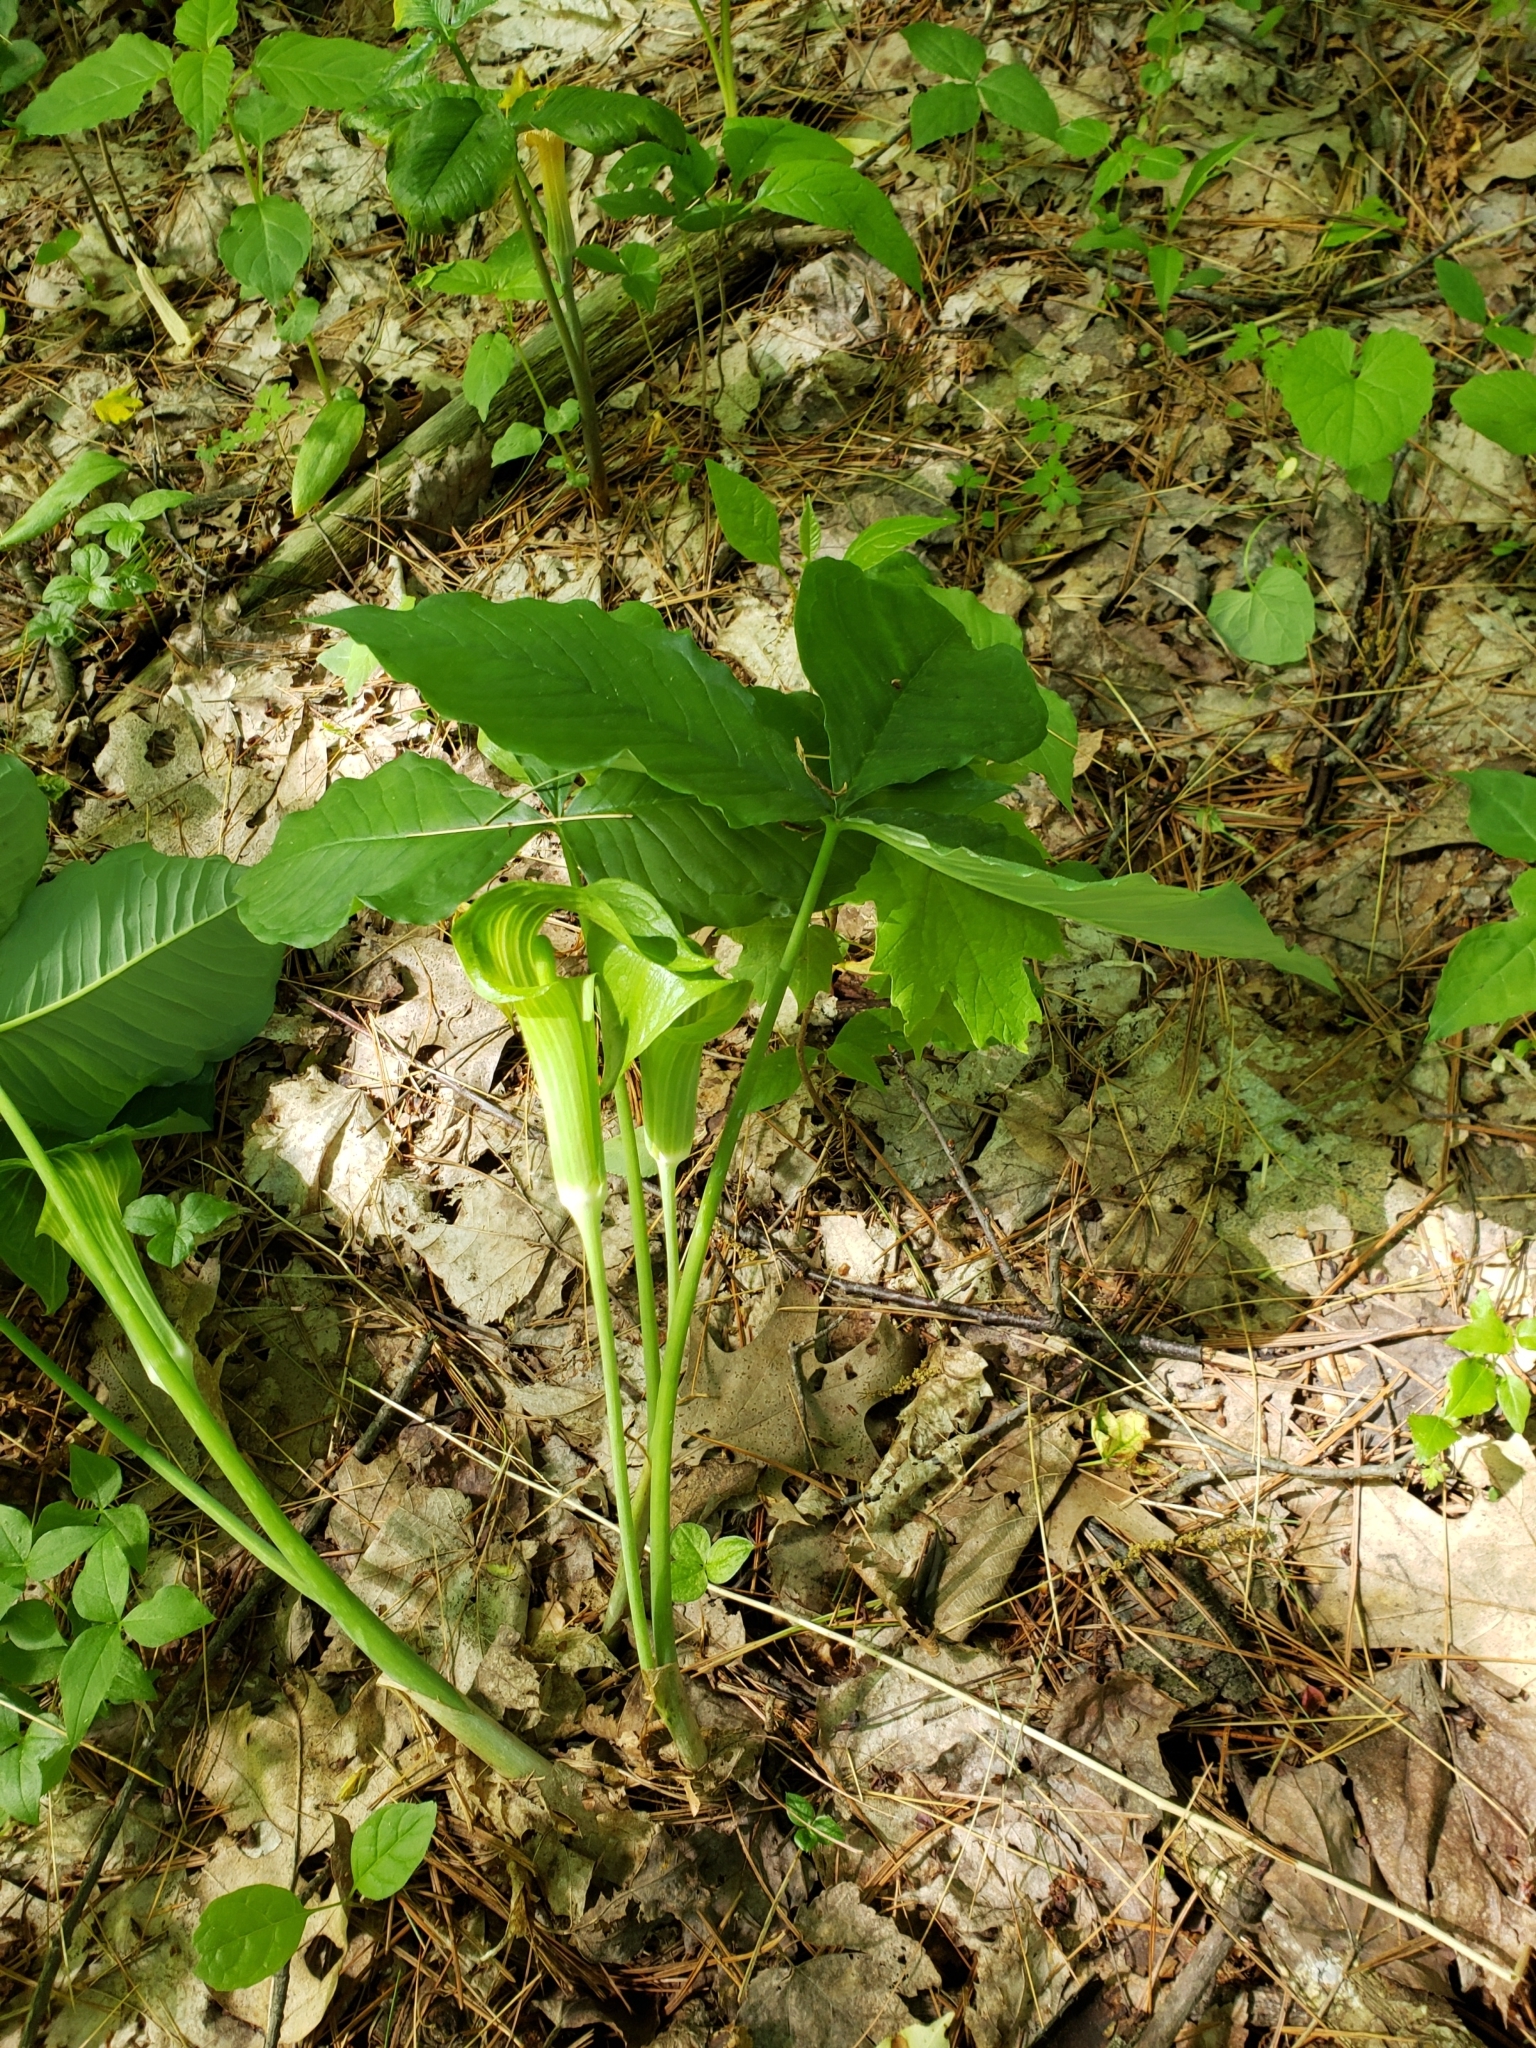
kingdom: Plantae
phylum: Tracheophyta
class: Liliopsida
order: Alismatales
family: Araceae
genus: Arisaema
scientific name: Arisaema triphyllum
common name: Jack-in-the-pulpit
